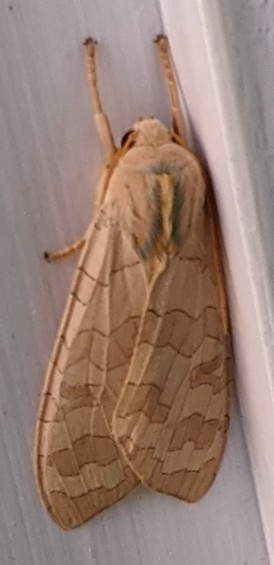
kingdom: Animalia
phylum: Arthropoda
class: Insecta
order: Lepidoptera
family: Erebidae
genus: Halysidota
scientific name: Halysidota tessellaris
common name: Banded tussock moth
